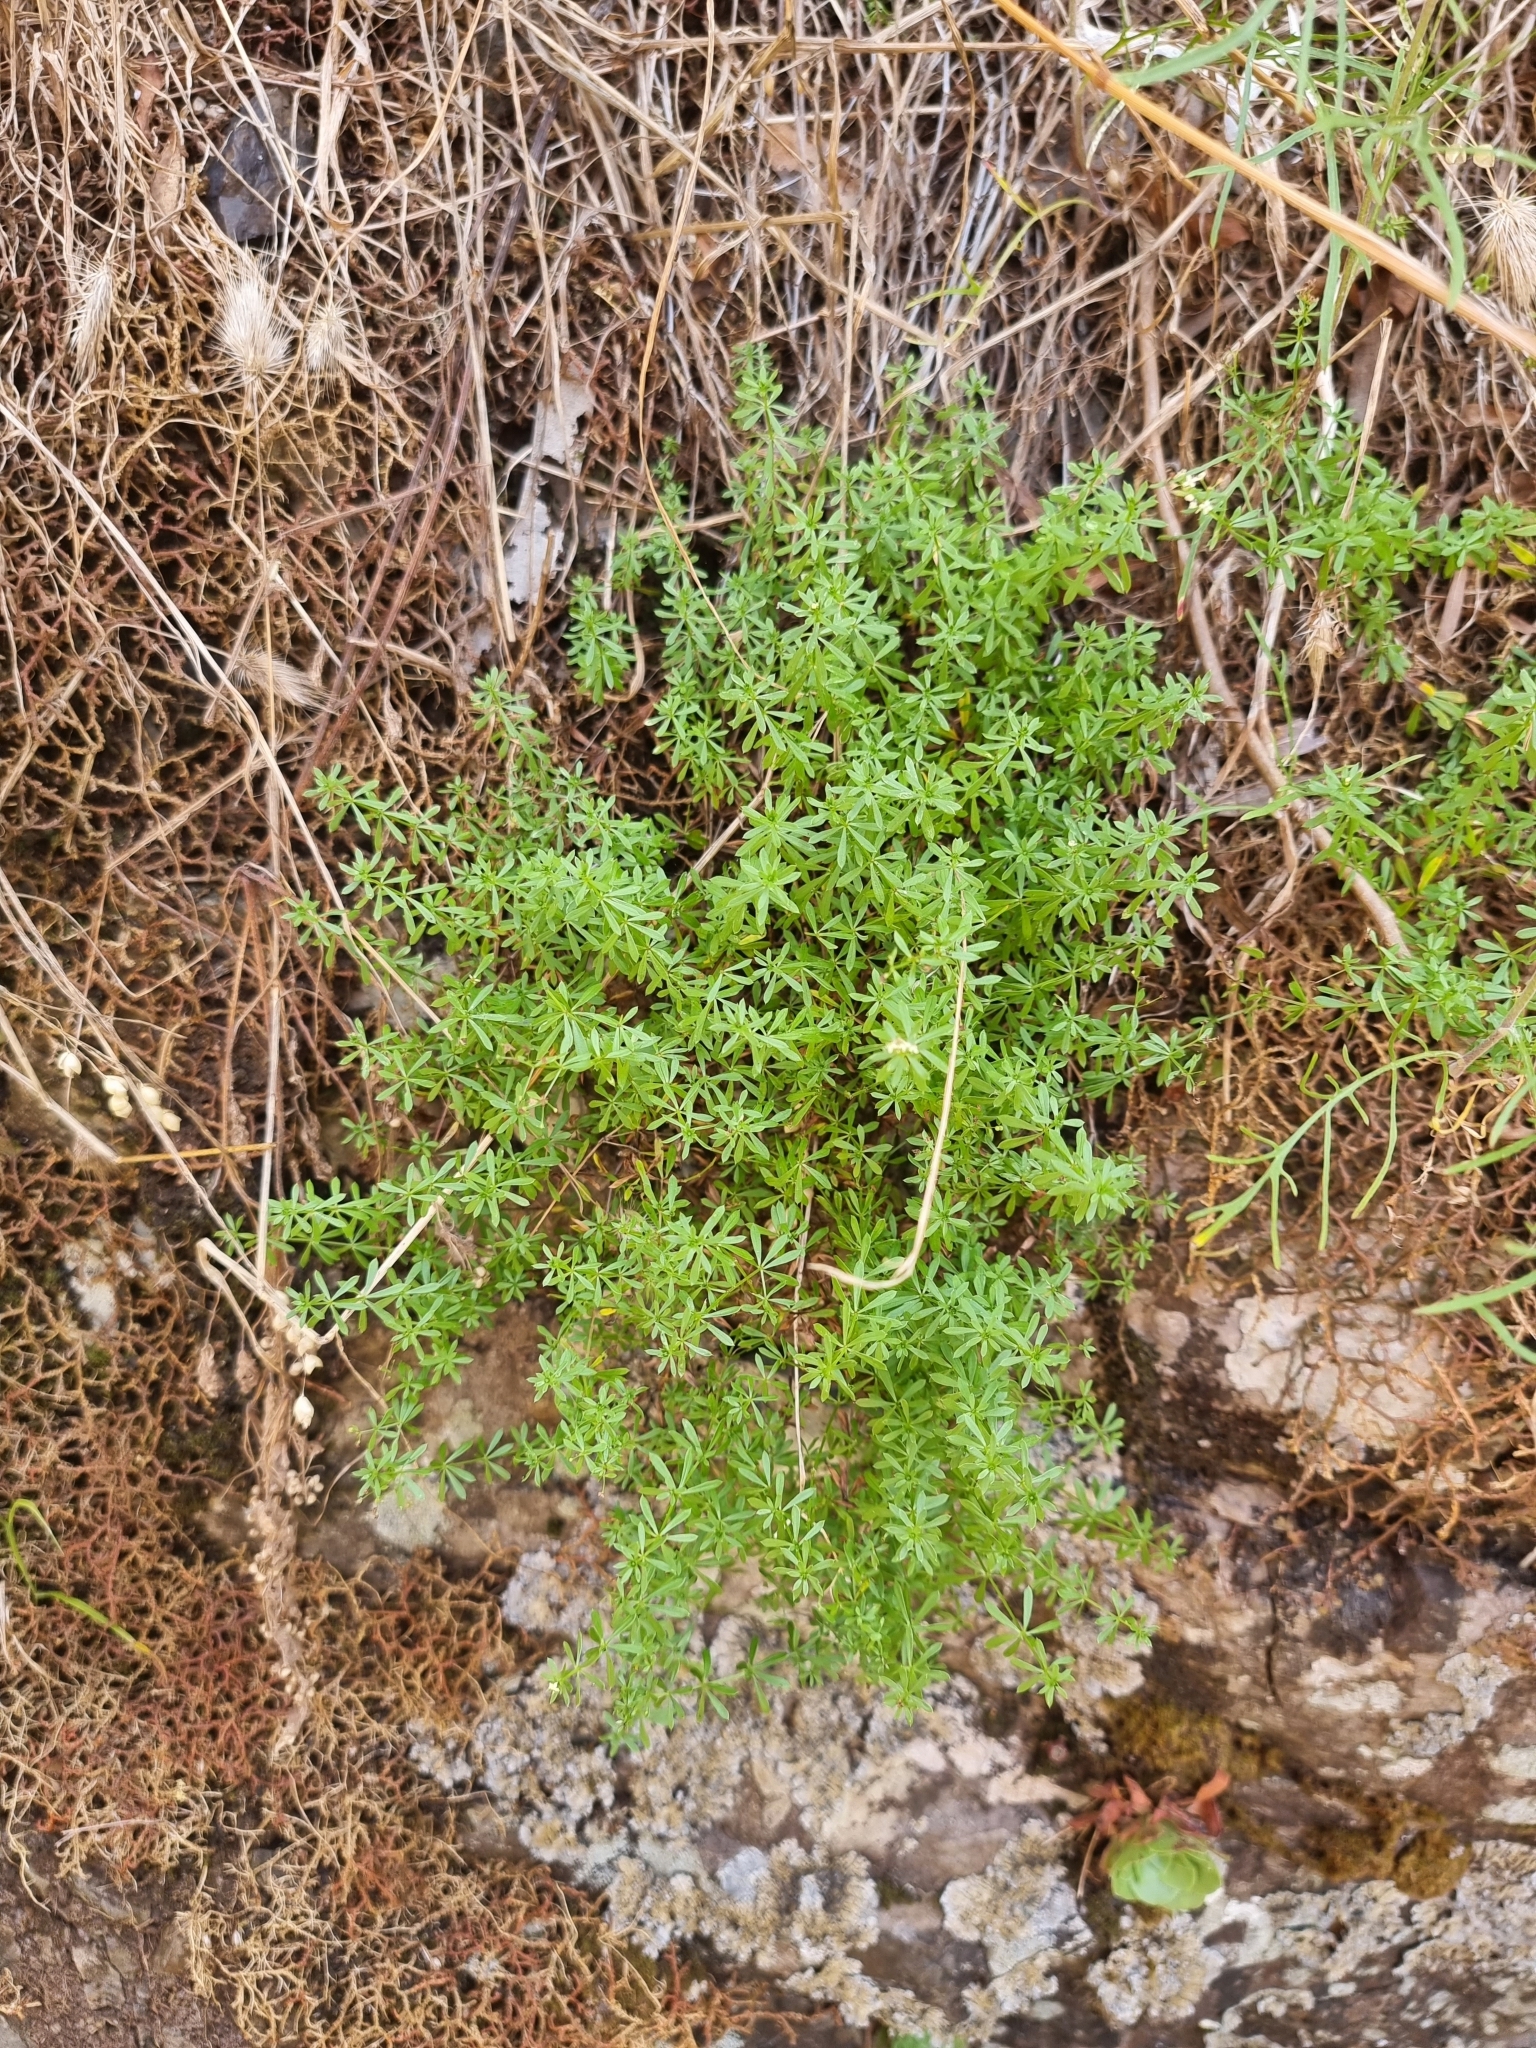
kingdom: Plantae
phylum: Tracheophyta
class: Magnoliopsida
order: Gentianales
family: Rubiaceae
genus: Galium
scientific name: Galium productum
